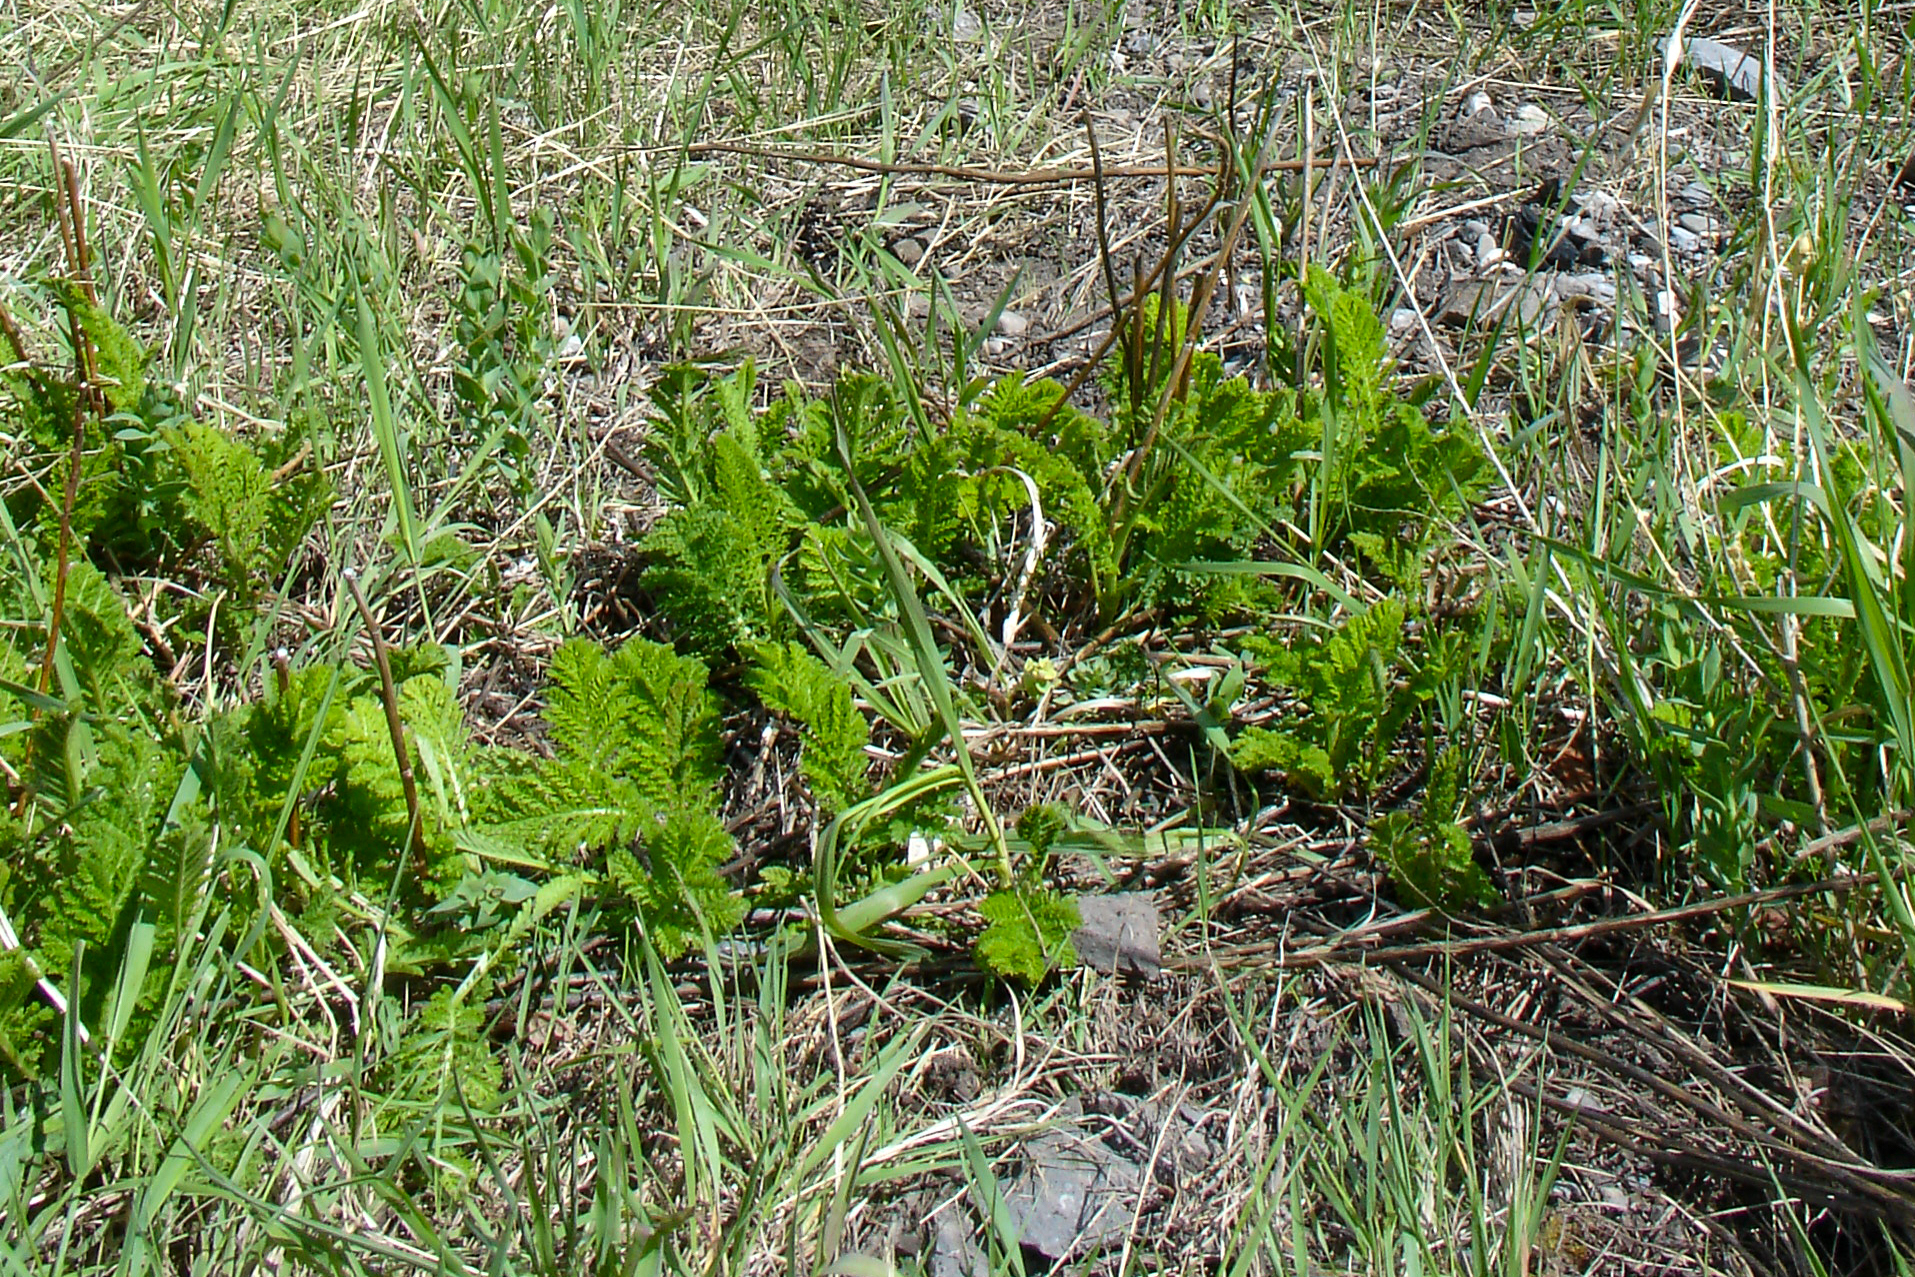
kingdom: Plantae
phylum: Tracheophyta
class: Magnoliopsida
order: Asterales
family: Asteraceae
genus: Tanacetum
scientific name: Tanacetum vulgare
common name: Common tansy
